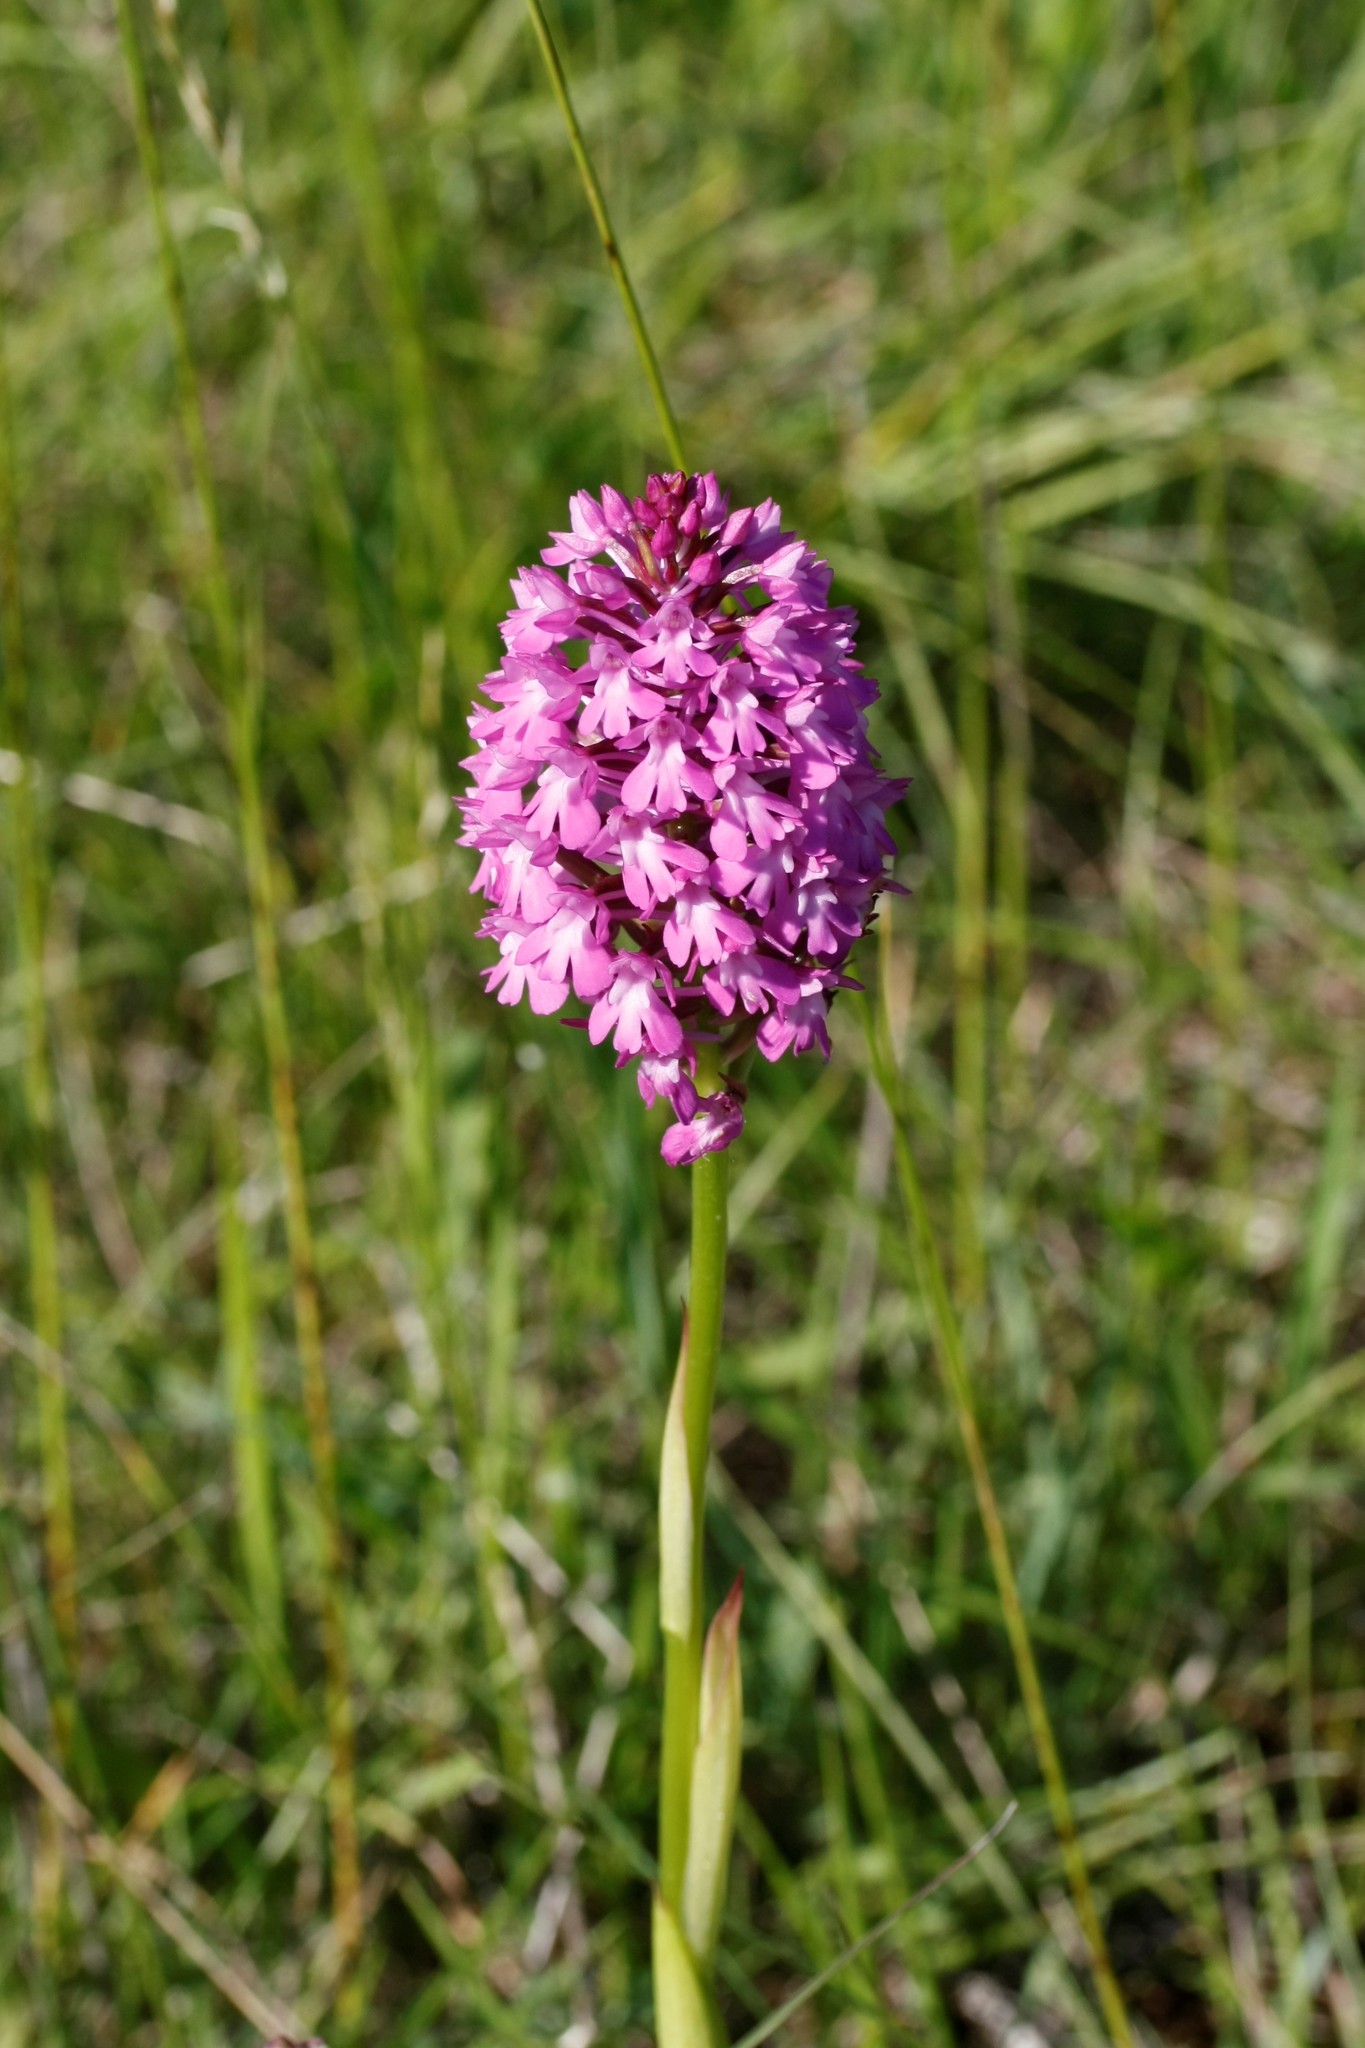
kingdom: Plantae
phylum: Tracheophyta
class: Liliopsida
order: Asparagales
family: Orchidaceae
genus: Anacamptis
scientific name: Anacamptis pyramidalis
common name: Pyramidal orchid
